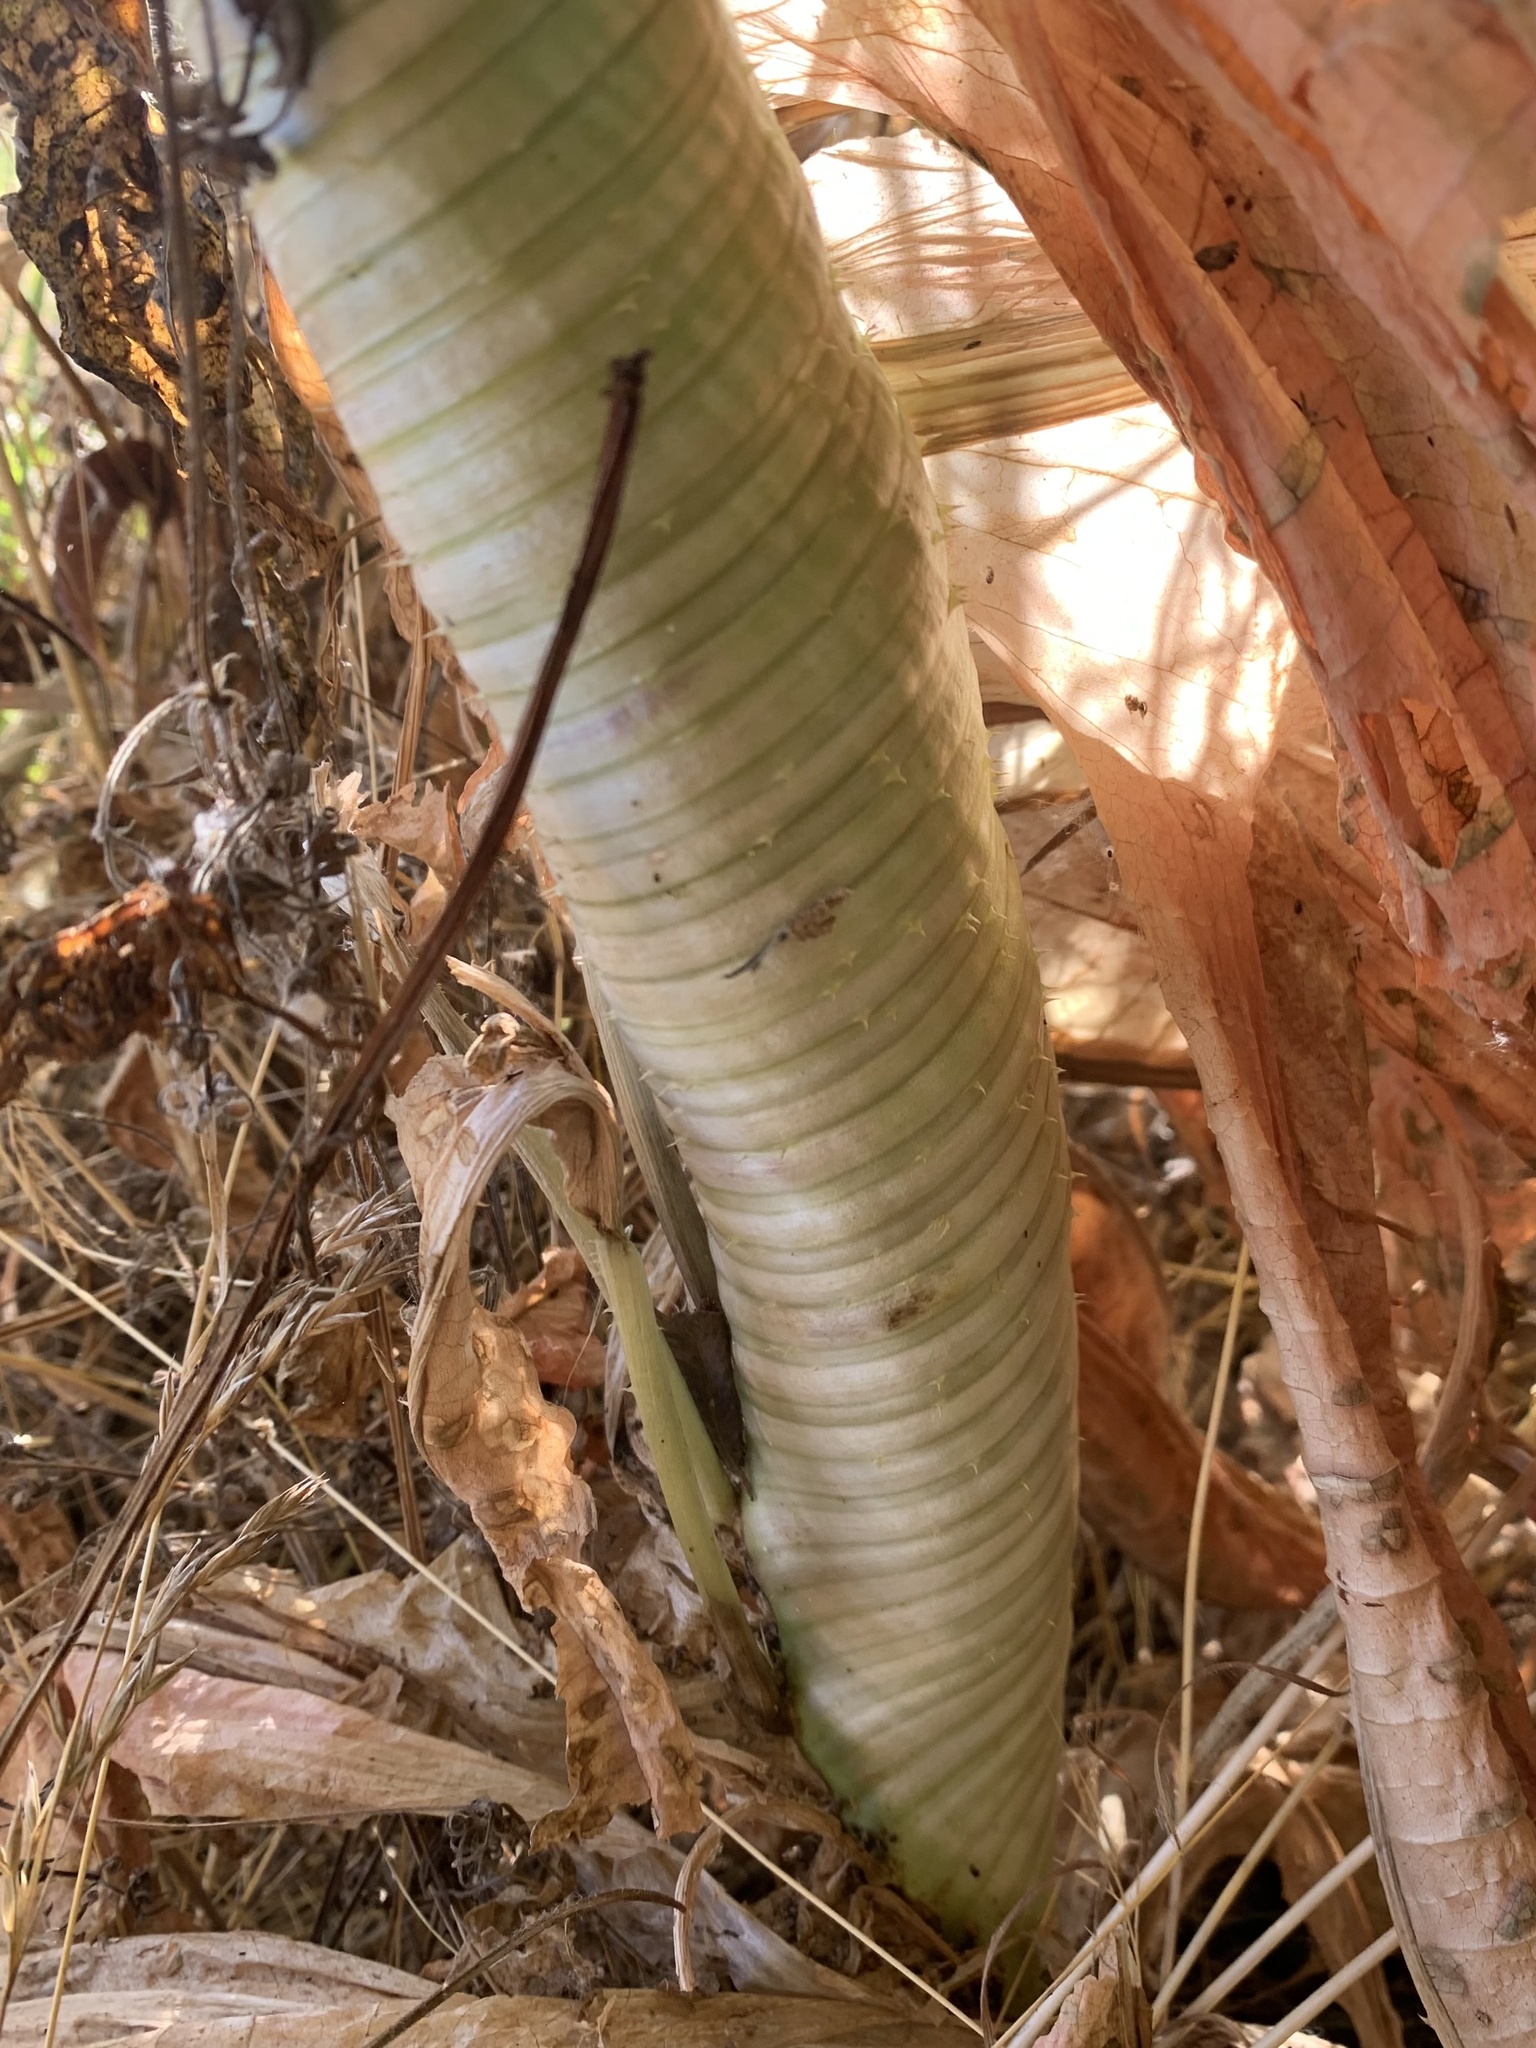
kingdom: Plantae
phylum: Tracheophyta
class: Magnoliopsida
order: Dipsacales
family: Caprifoliaceae
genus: Dipsacus
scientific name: Dipsacus fullonum
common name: Teasel
